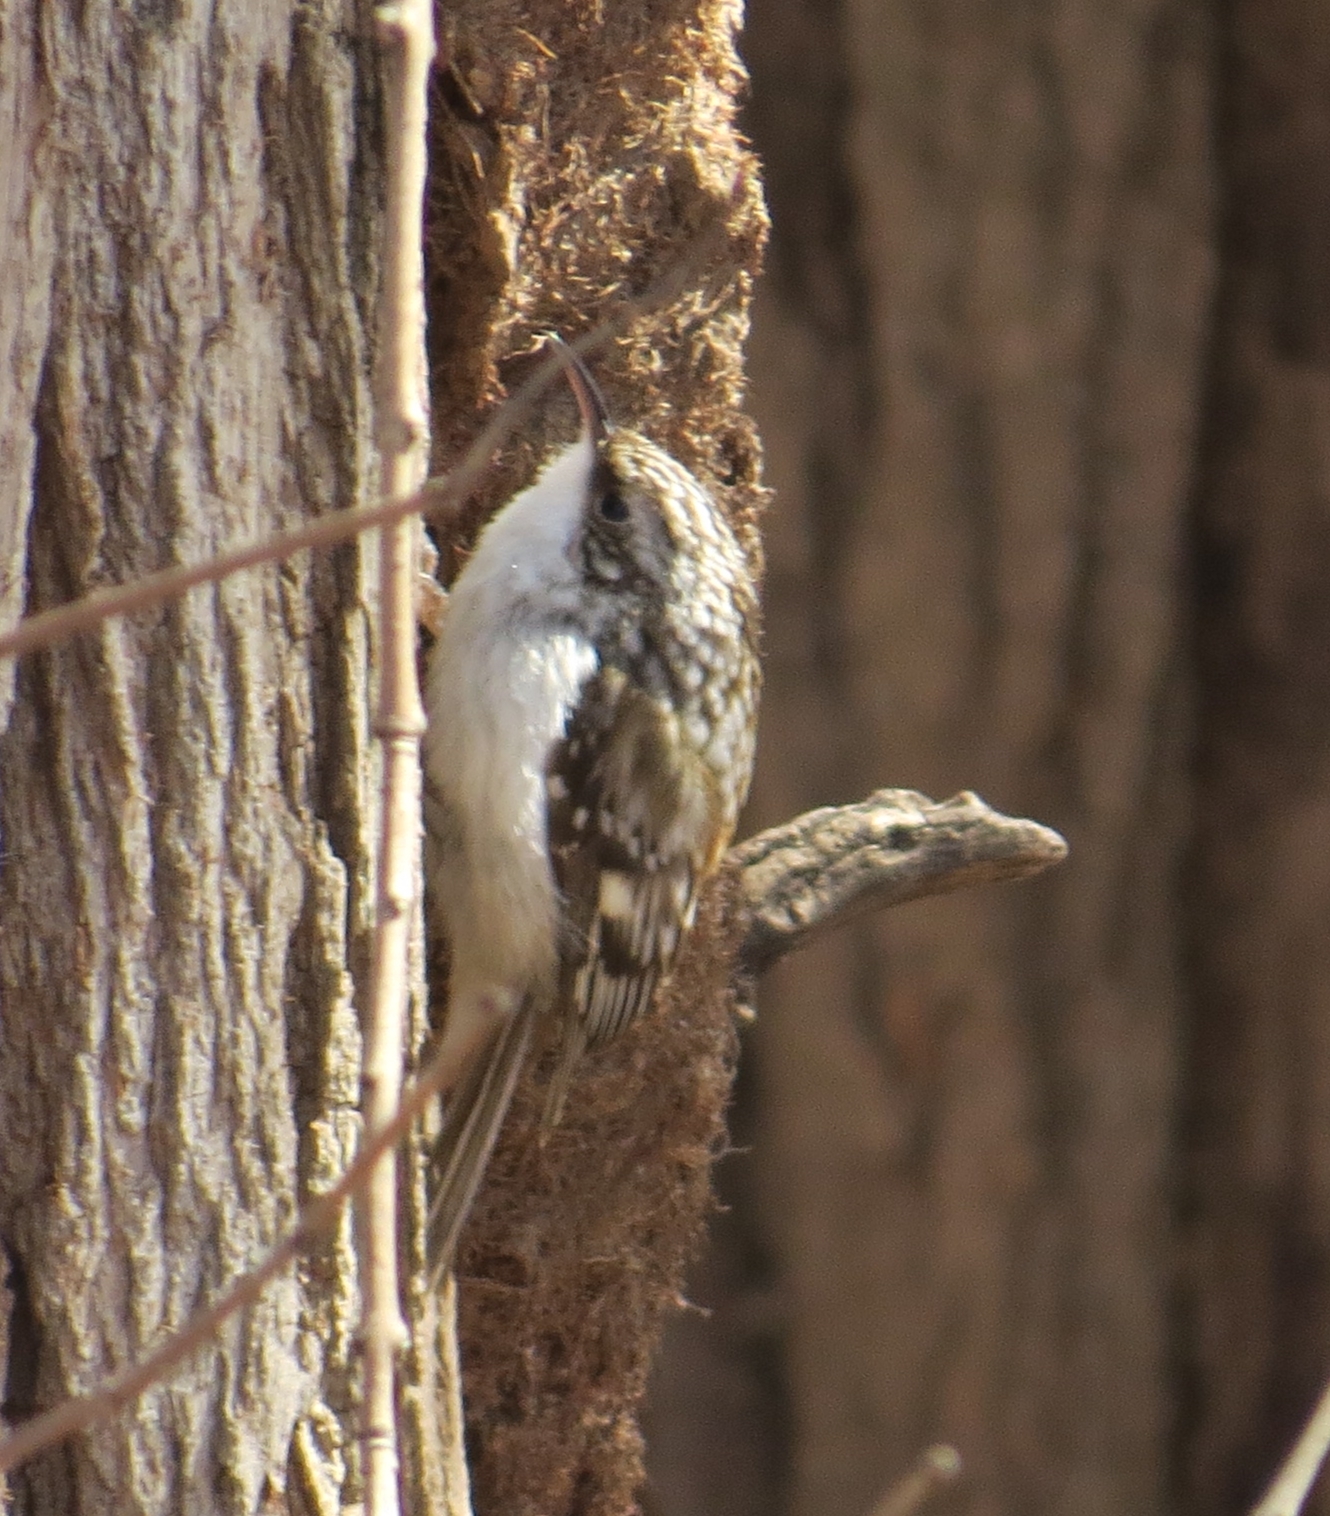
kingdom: Animalia
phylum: Chordata
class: Aves
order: Passeriformes
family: Certhiidae
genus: Certhia
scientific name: Certhia americana
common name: Brown creeper
